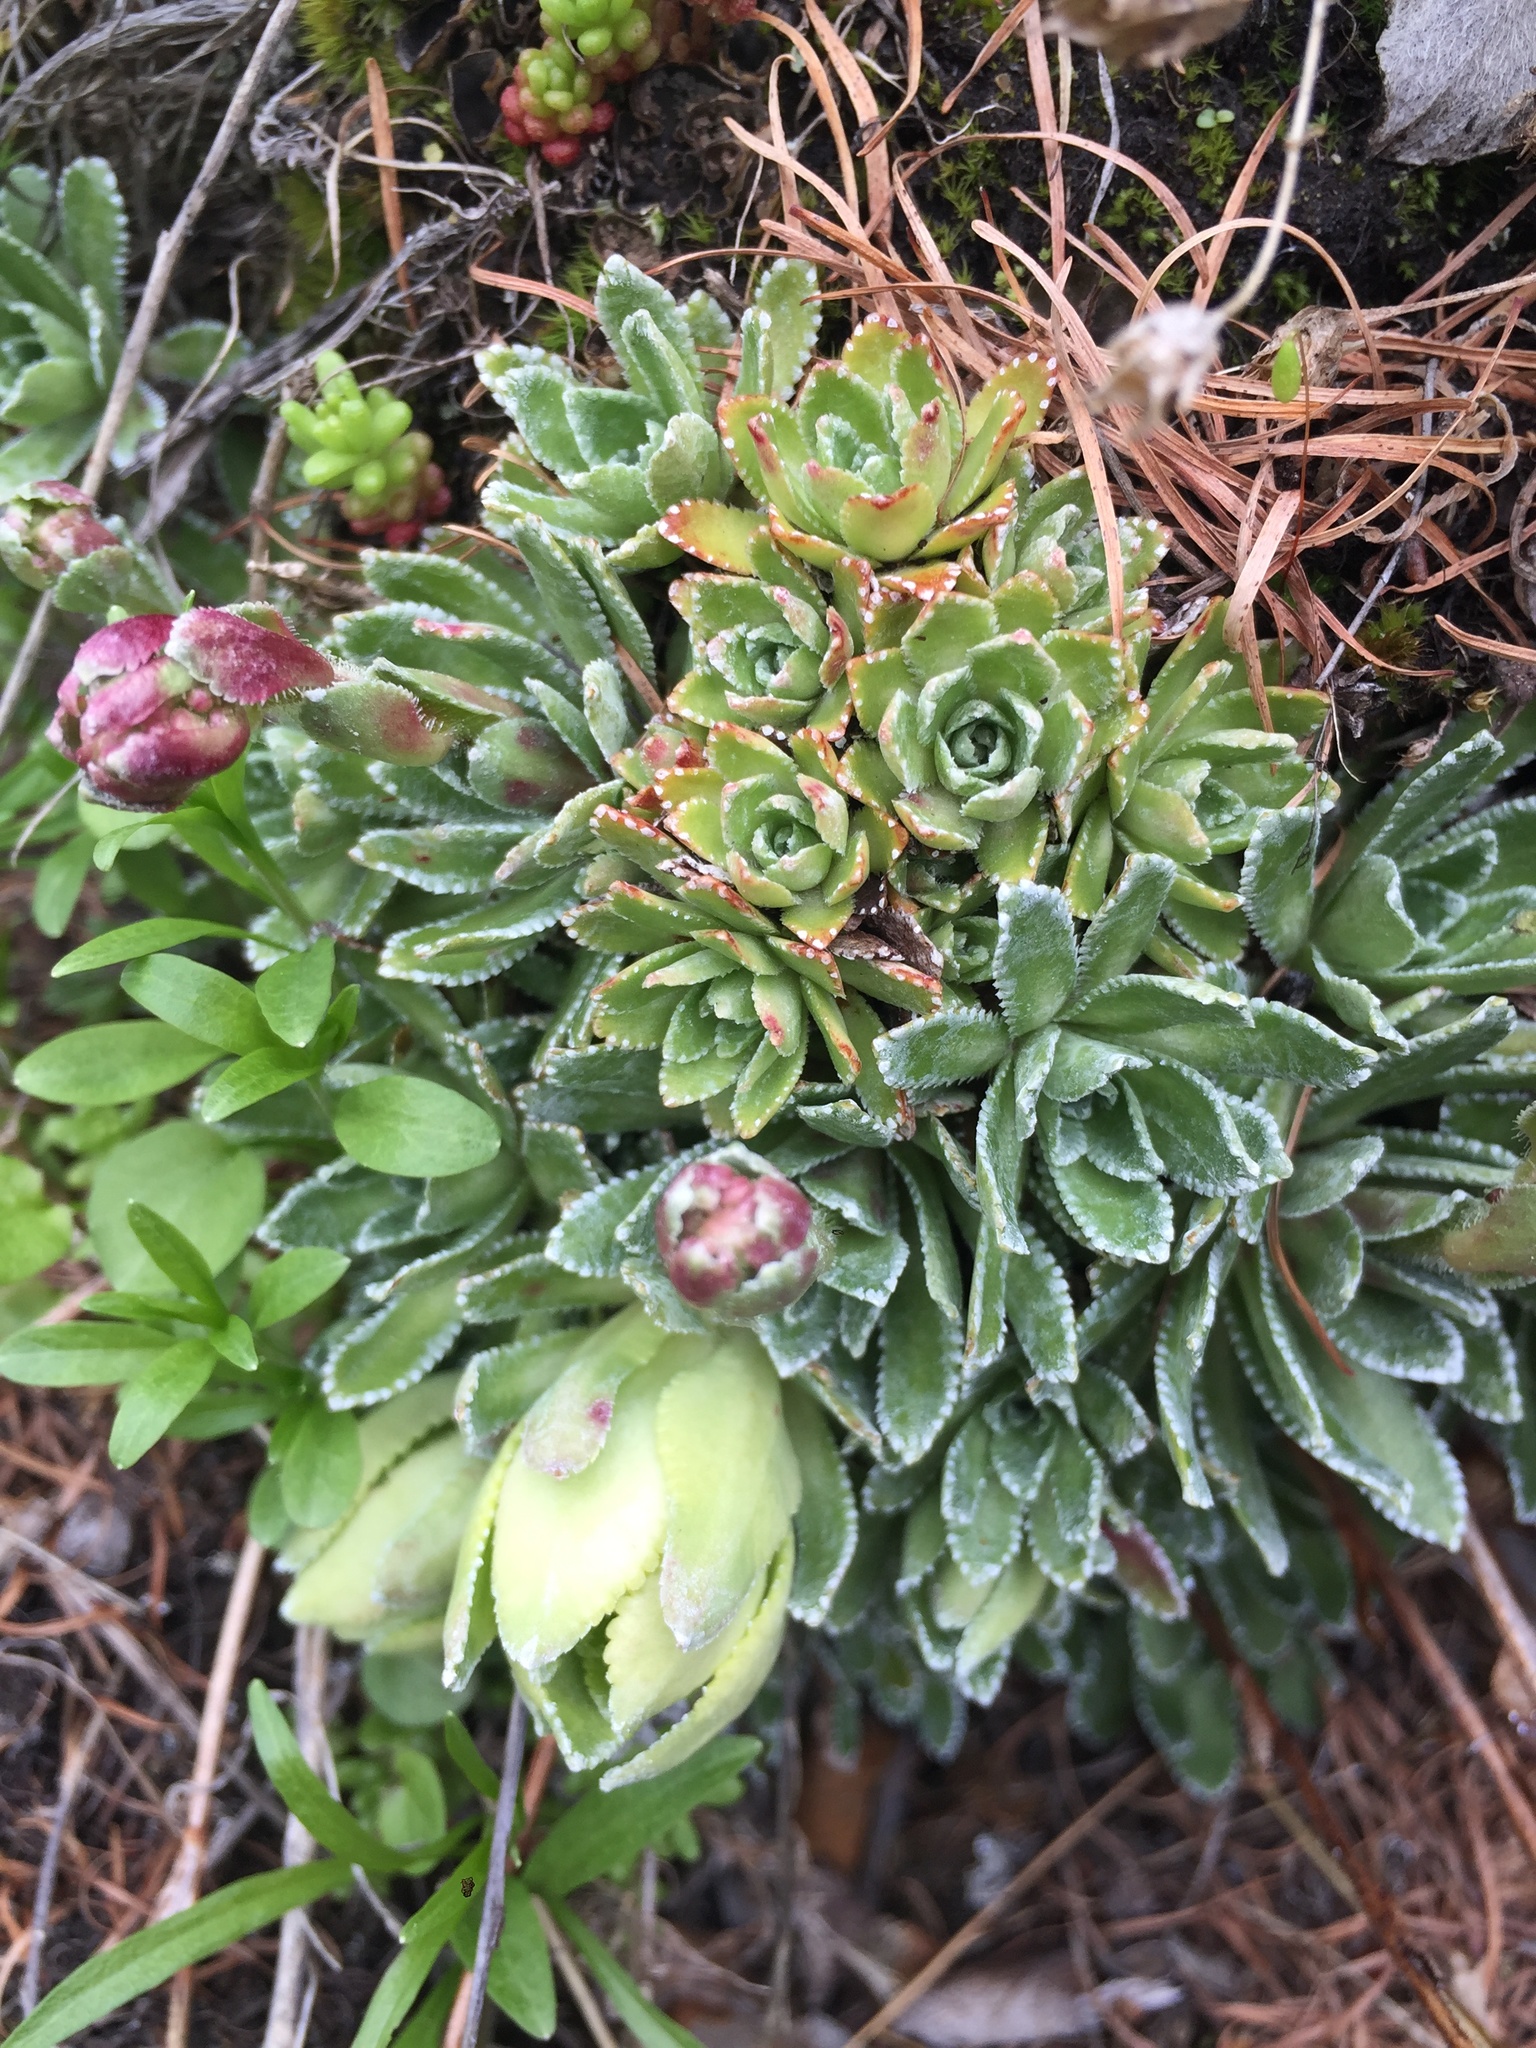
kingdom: Plantae
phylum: Tracheophyta
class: Magnoliopsida
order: Saxifragales
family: Saxifragaceae
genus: Saxifraga
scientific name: Saxifraga paniculata
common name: Livelong saxifrage
